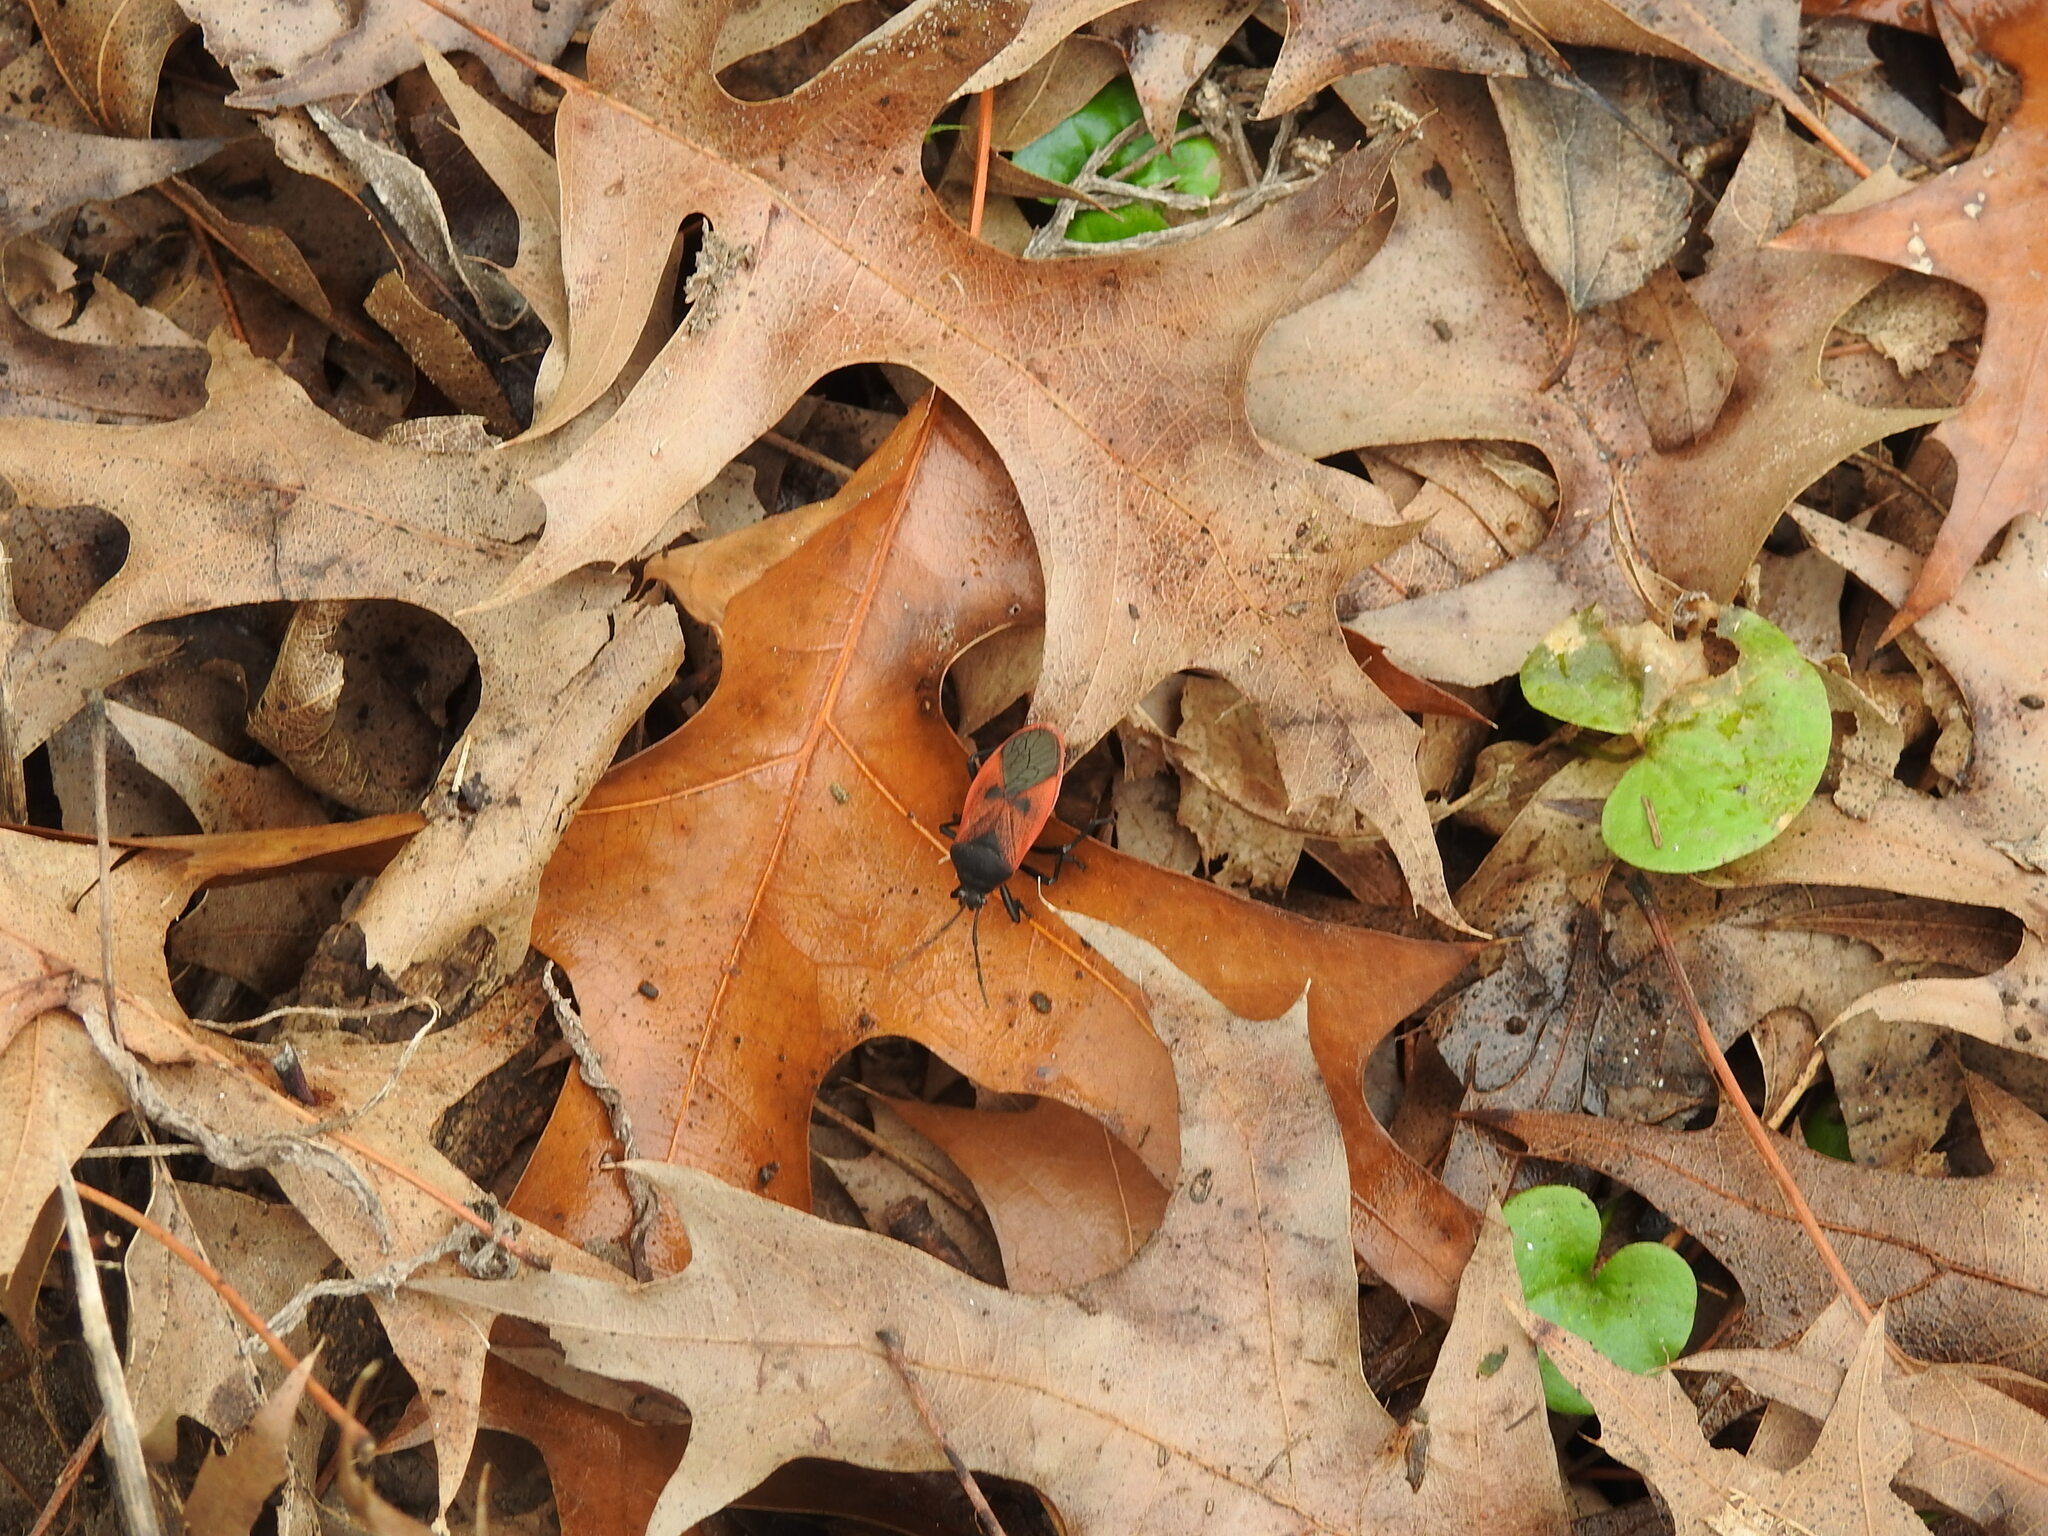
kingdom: Animalia
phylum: Arthropoda
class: Insecta
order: Hemiptera
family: Largidae
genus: Largus
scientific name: Largus rufipennis
